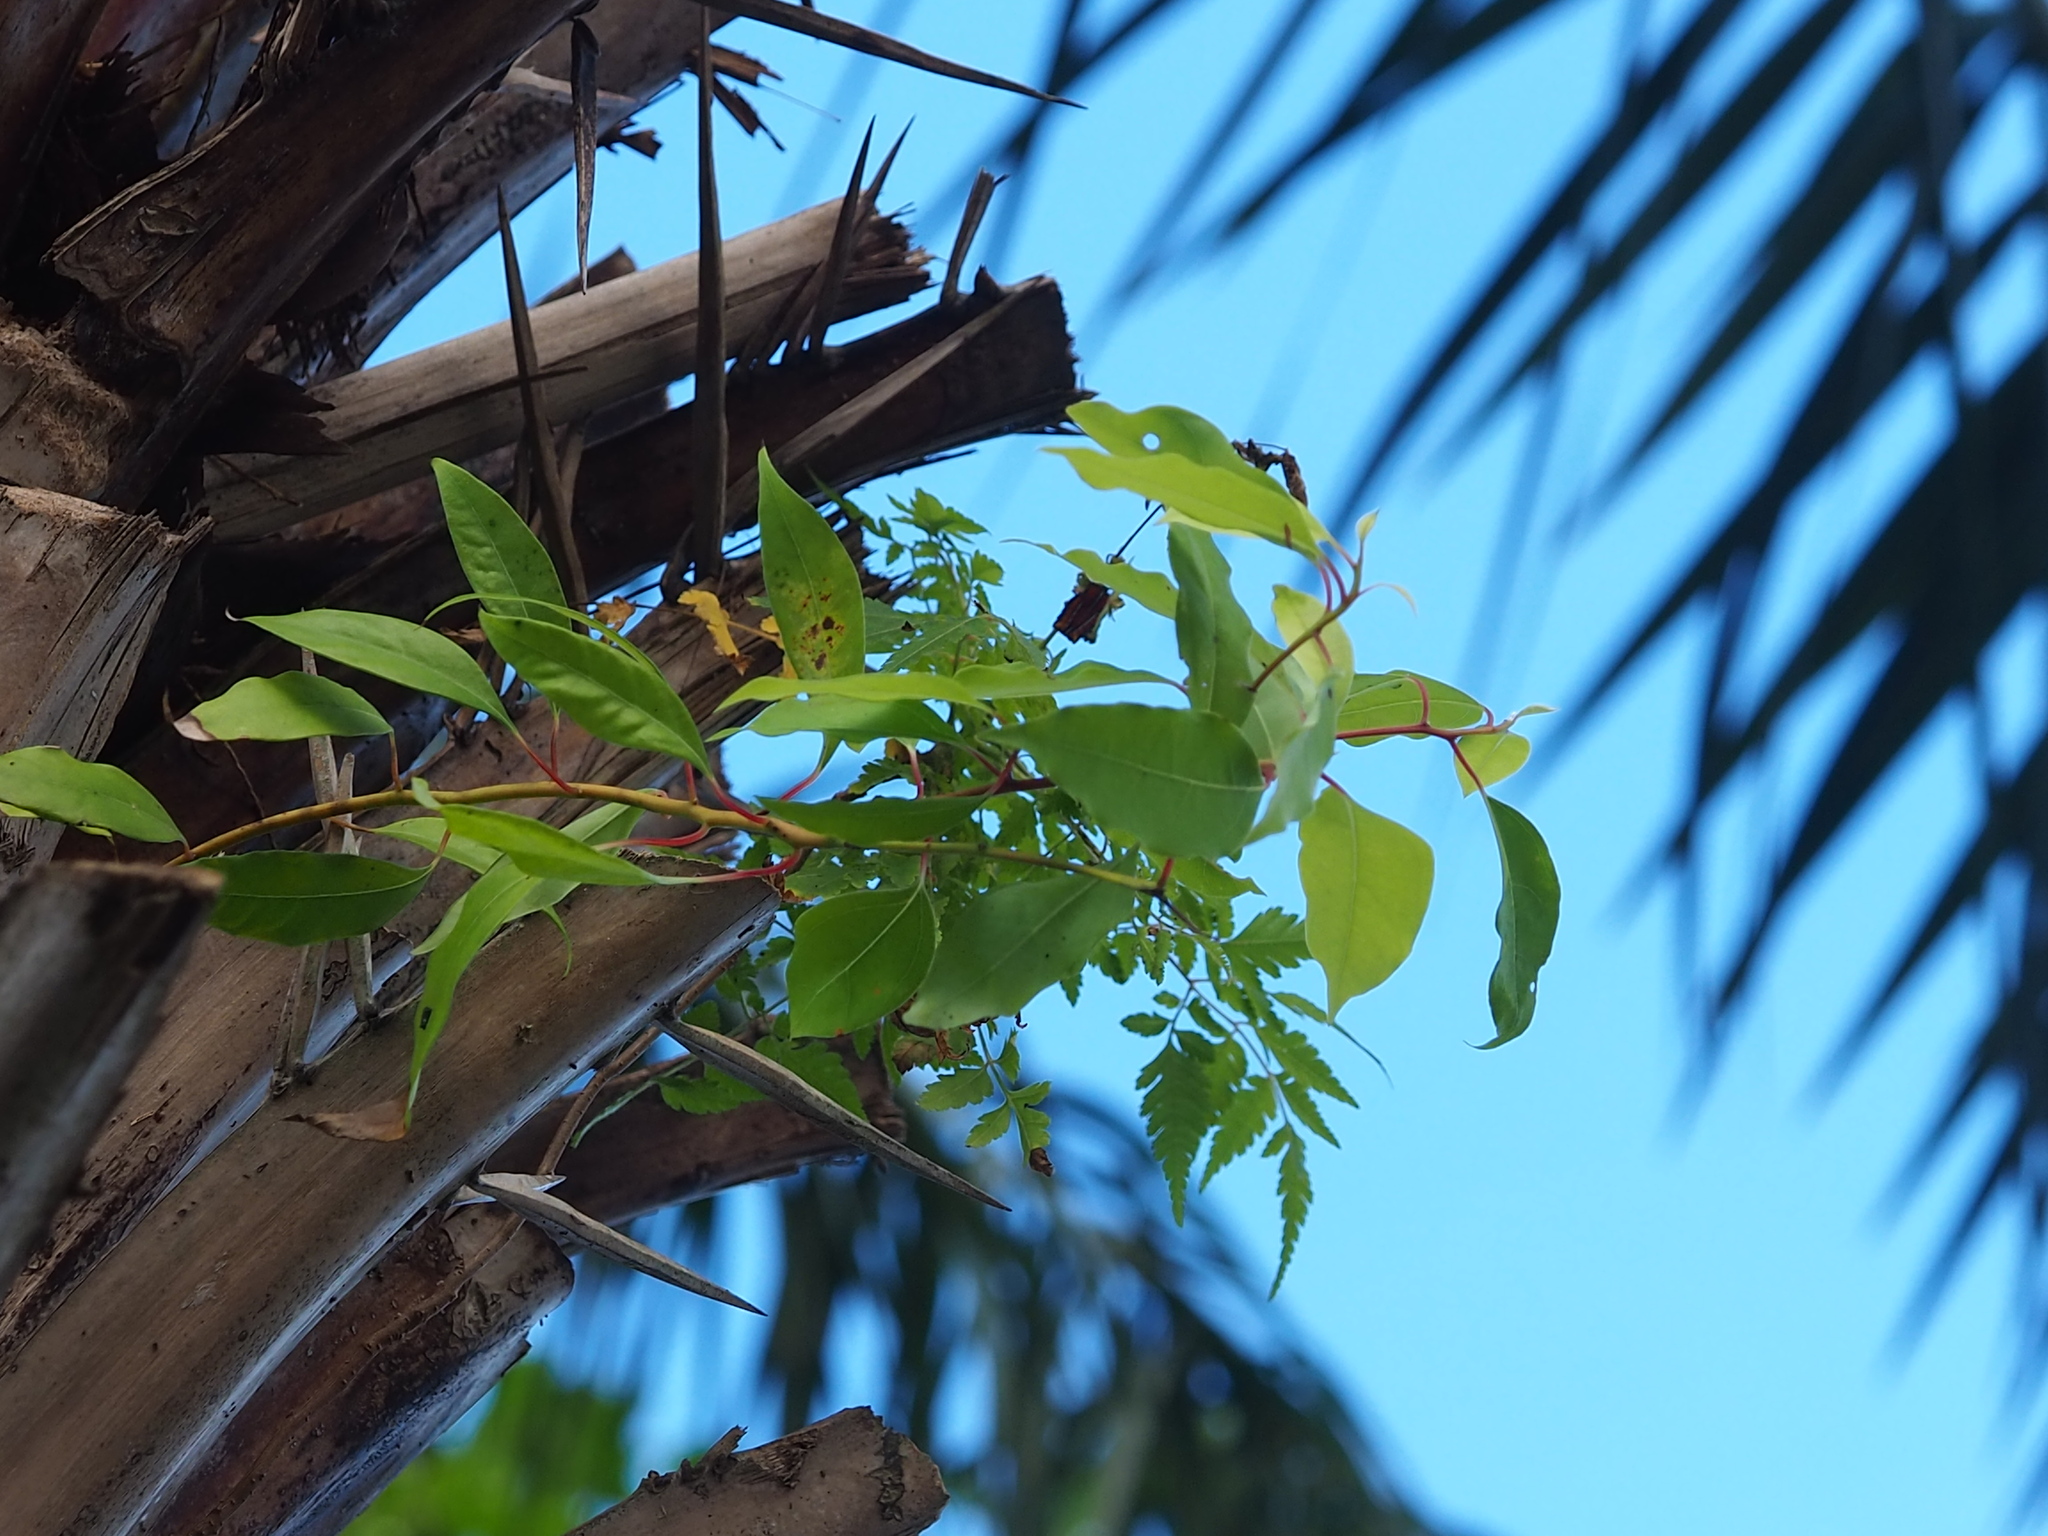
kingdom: Plantae
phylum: Tracheophyta
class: Magnoliopsida
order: Laurales
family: Lauraceae
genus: Cinnamomum
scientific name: Cinnamomum camphora
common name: Camphortree
